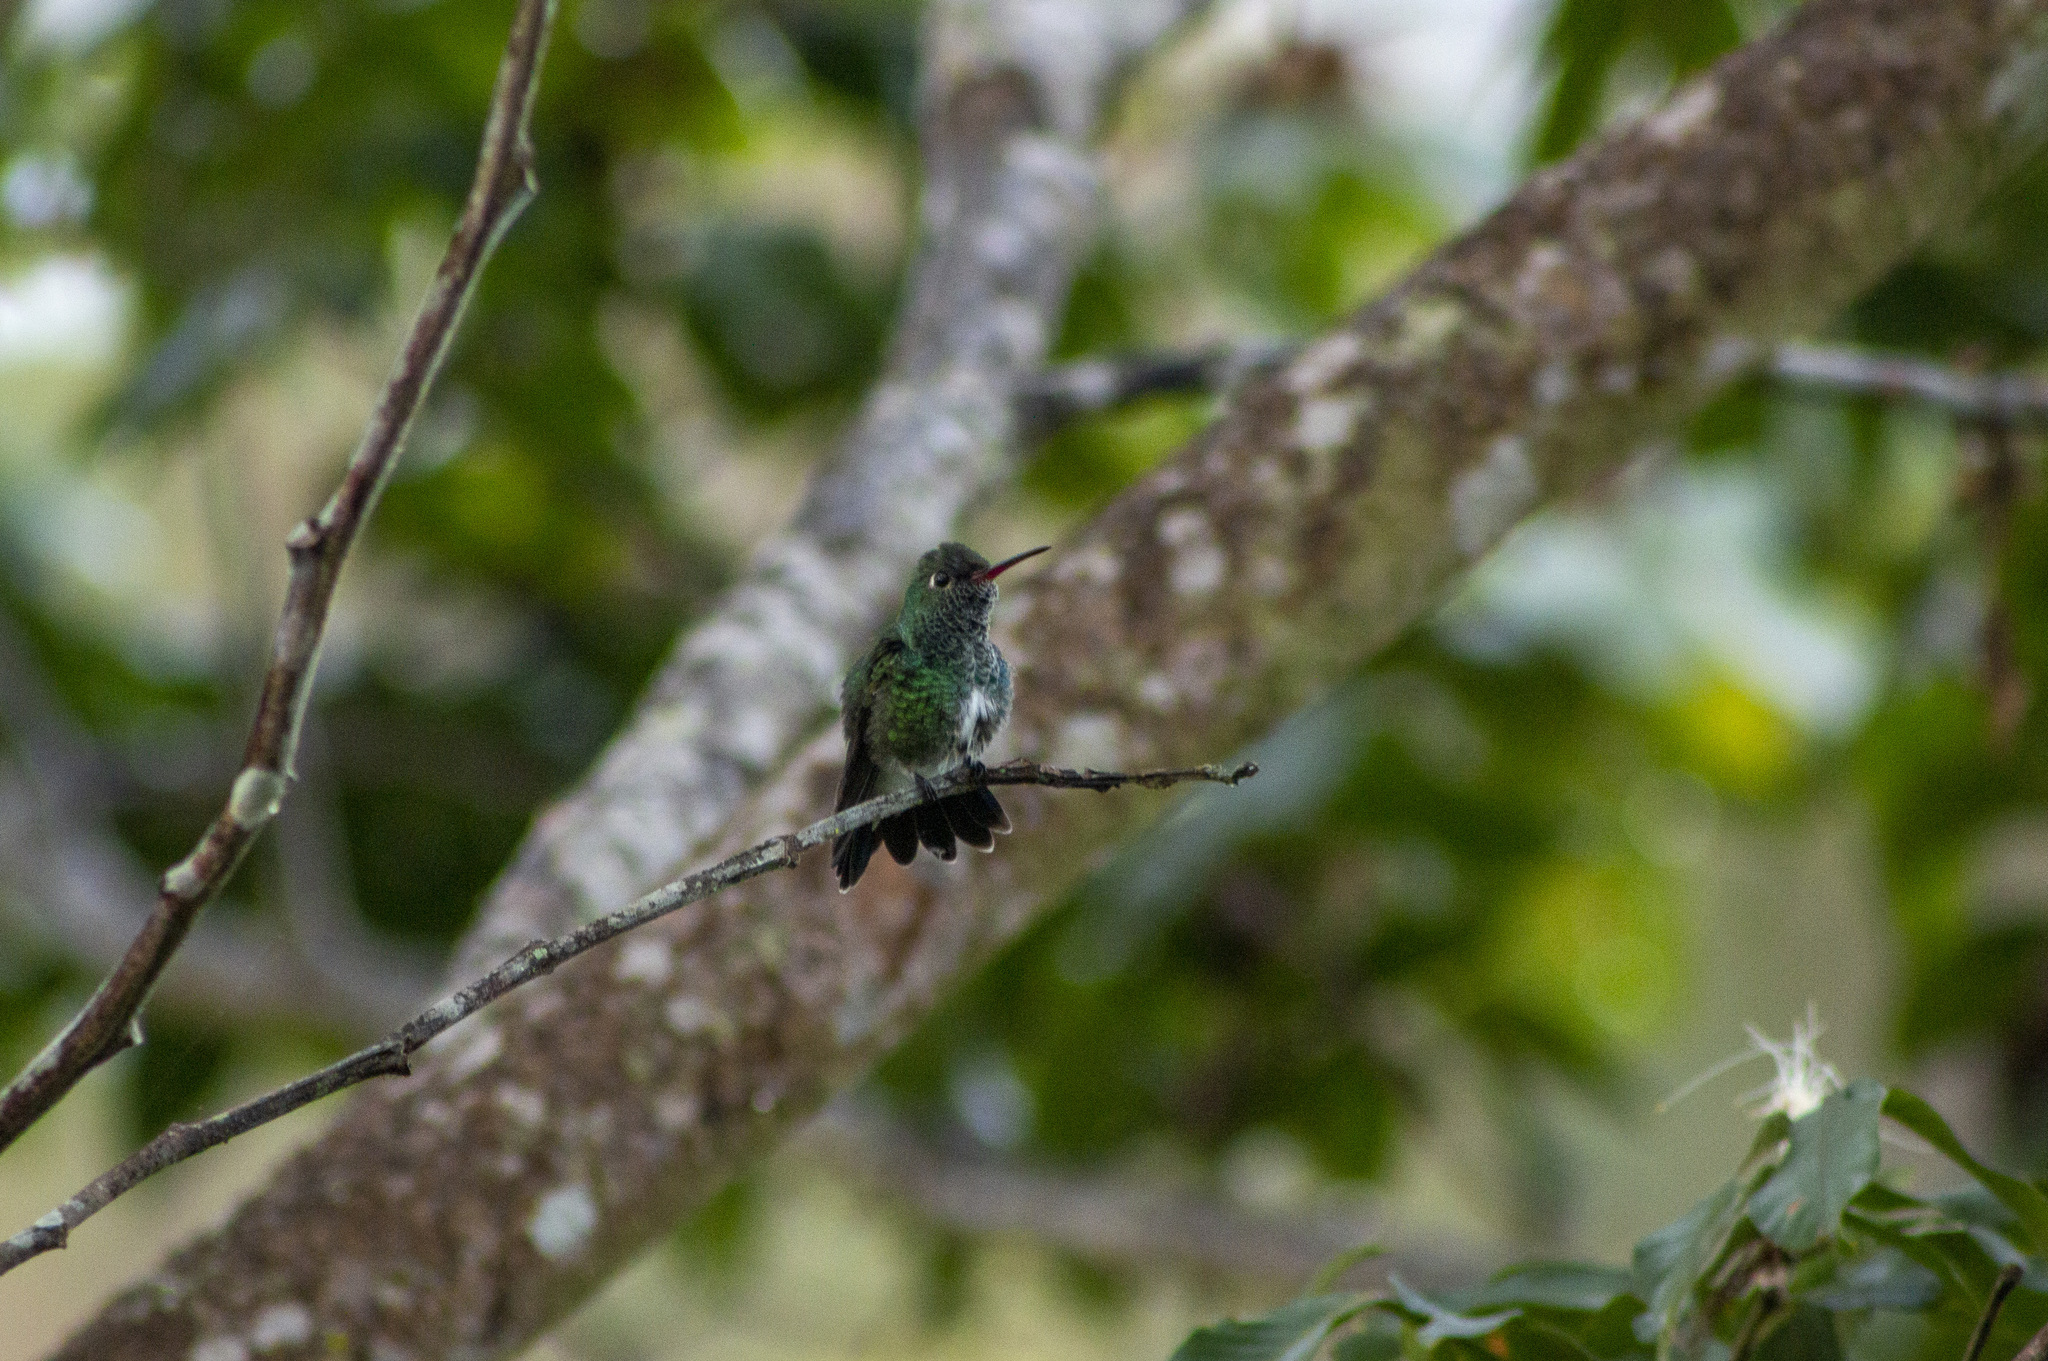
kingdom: Animalia
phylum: Chordata
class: Aves
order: Apodiformes
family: Trochilidae
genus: Chionomesa
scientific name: Chionomesa fimbriata
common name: Glittering-throated emerald
